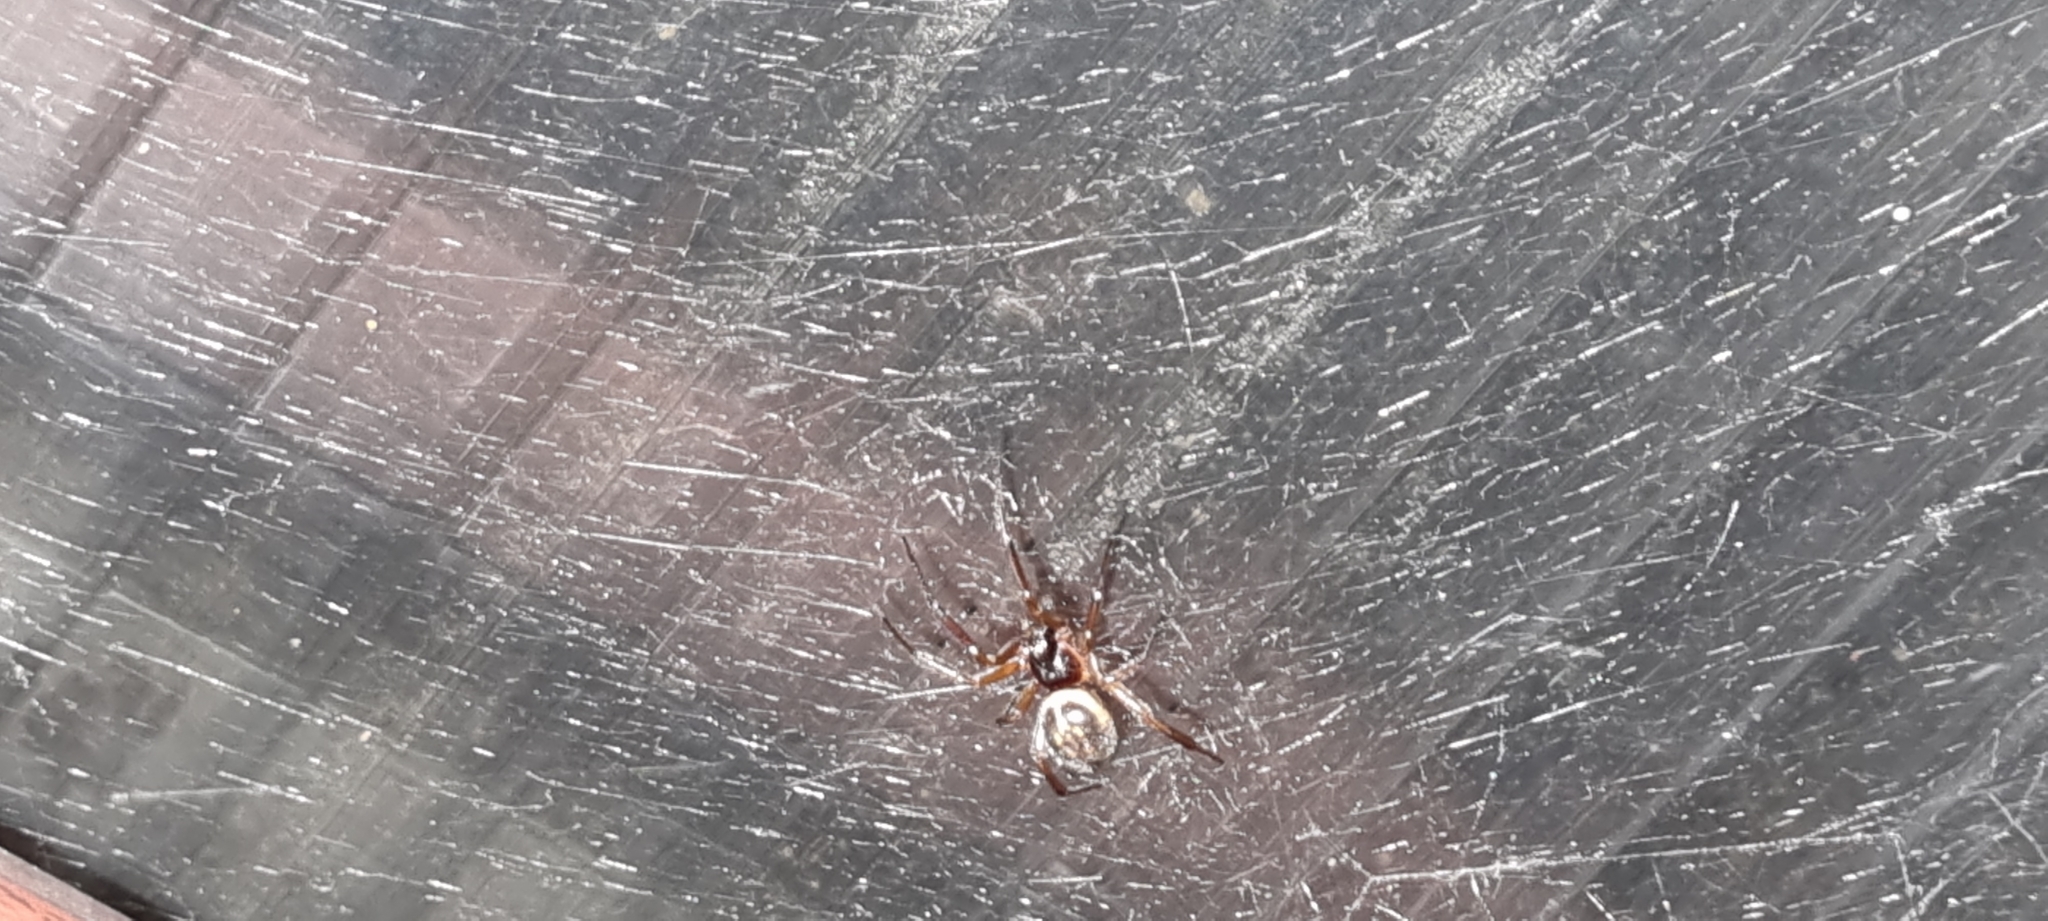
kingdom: Animalia
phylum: Arthropoda
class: Arachnida
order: Araneae
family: Theridiidae
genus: Steatoda
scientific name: Steatoda nobilis
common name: Cobweb weaver
